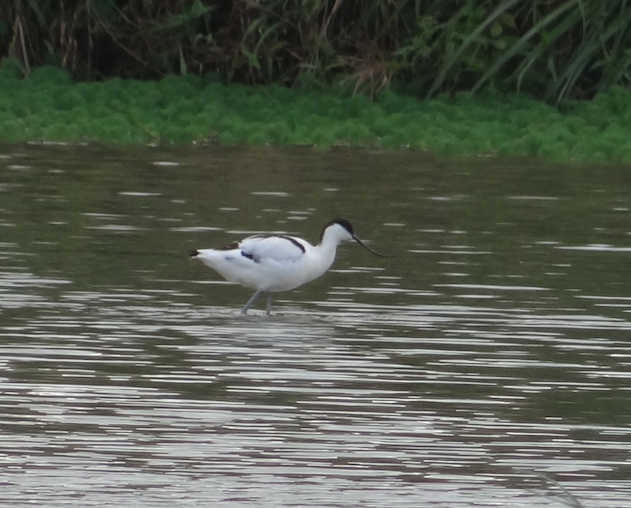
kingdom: Animalia
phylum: Chordata
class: Aves
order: Charadriiformes
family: Recurvirostridae
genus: Recurvirostra
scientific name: Recurvirostra avosetta
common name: Pied avocet
